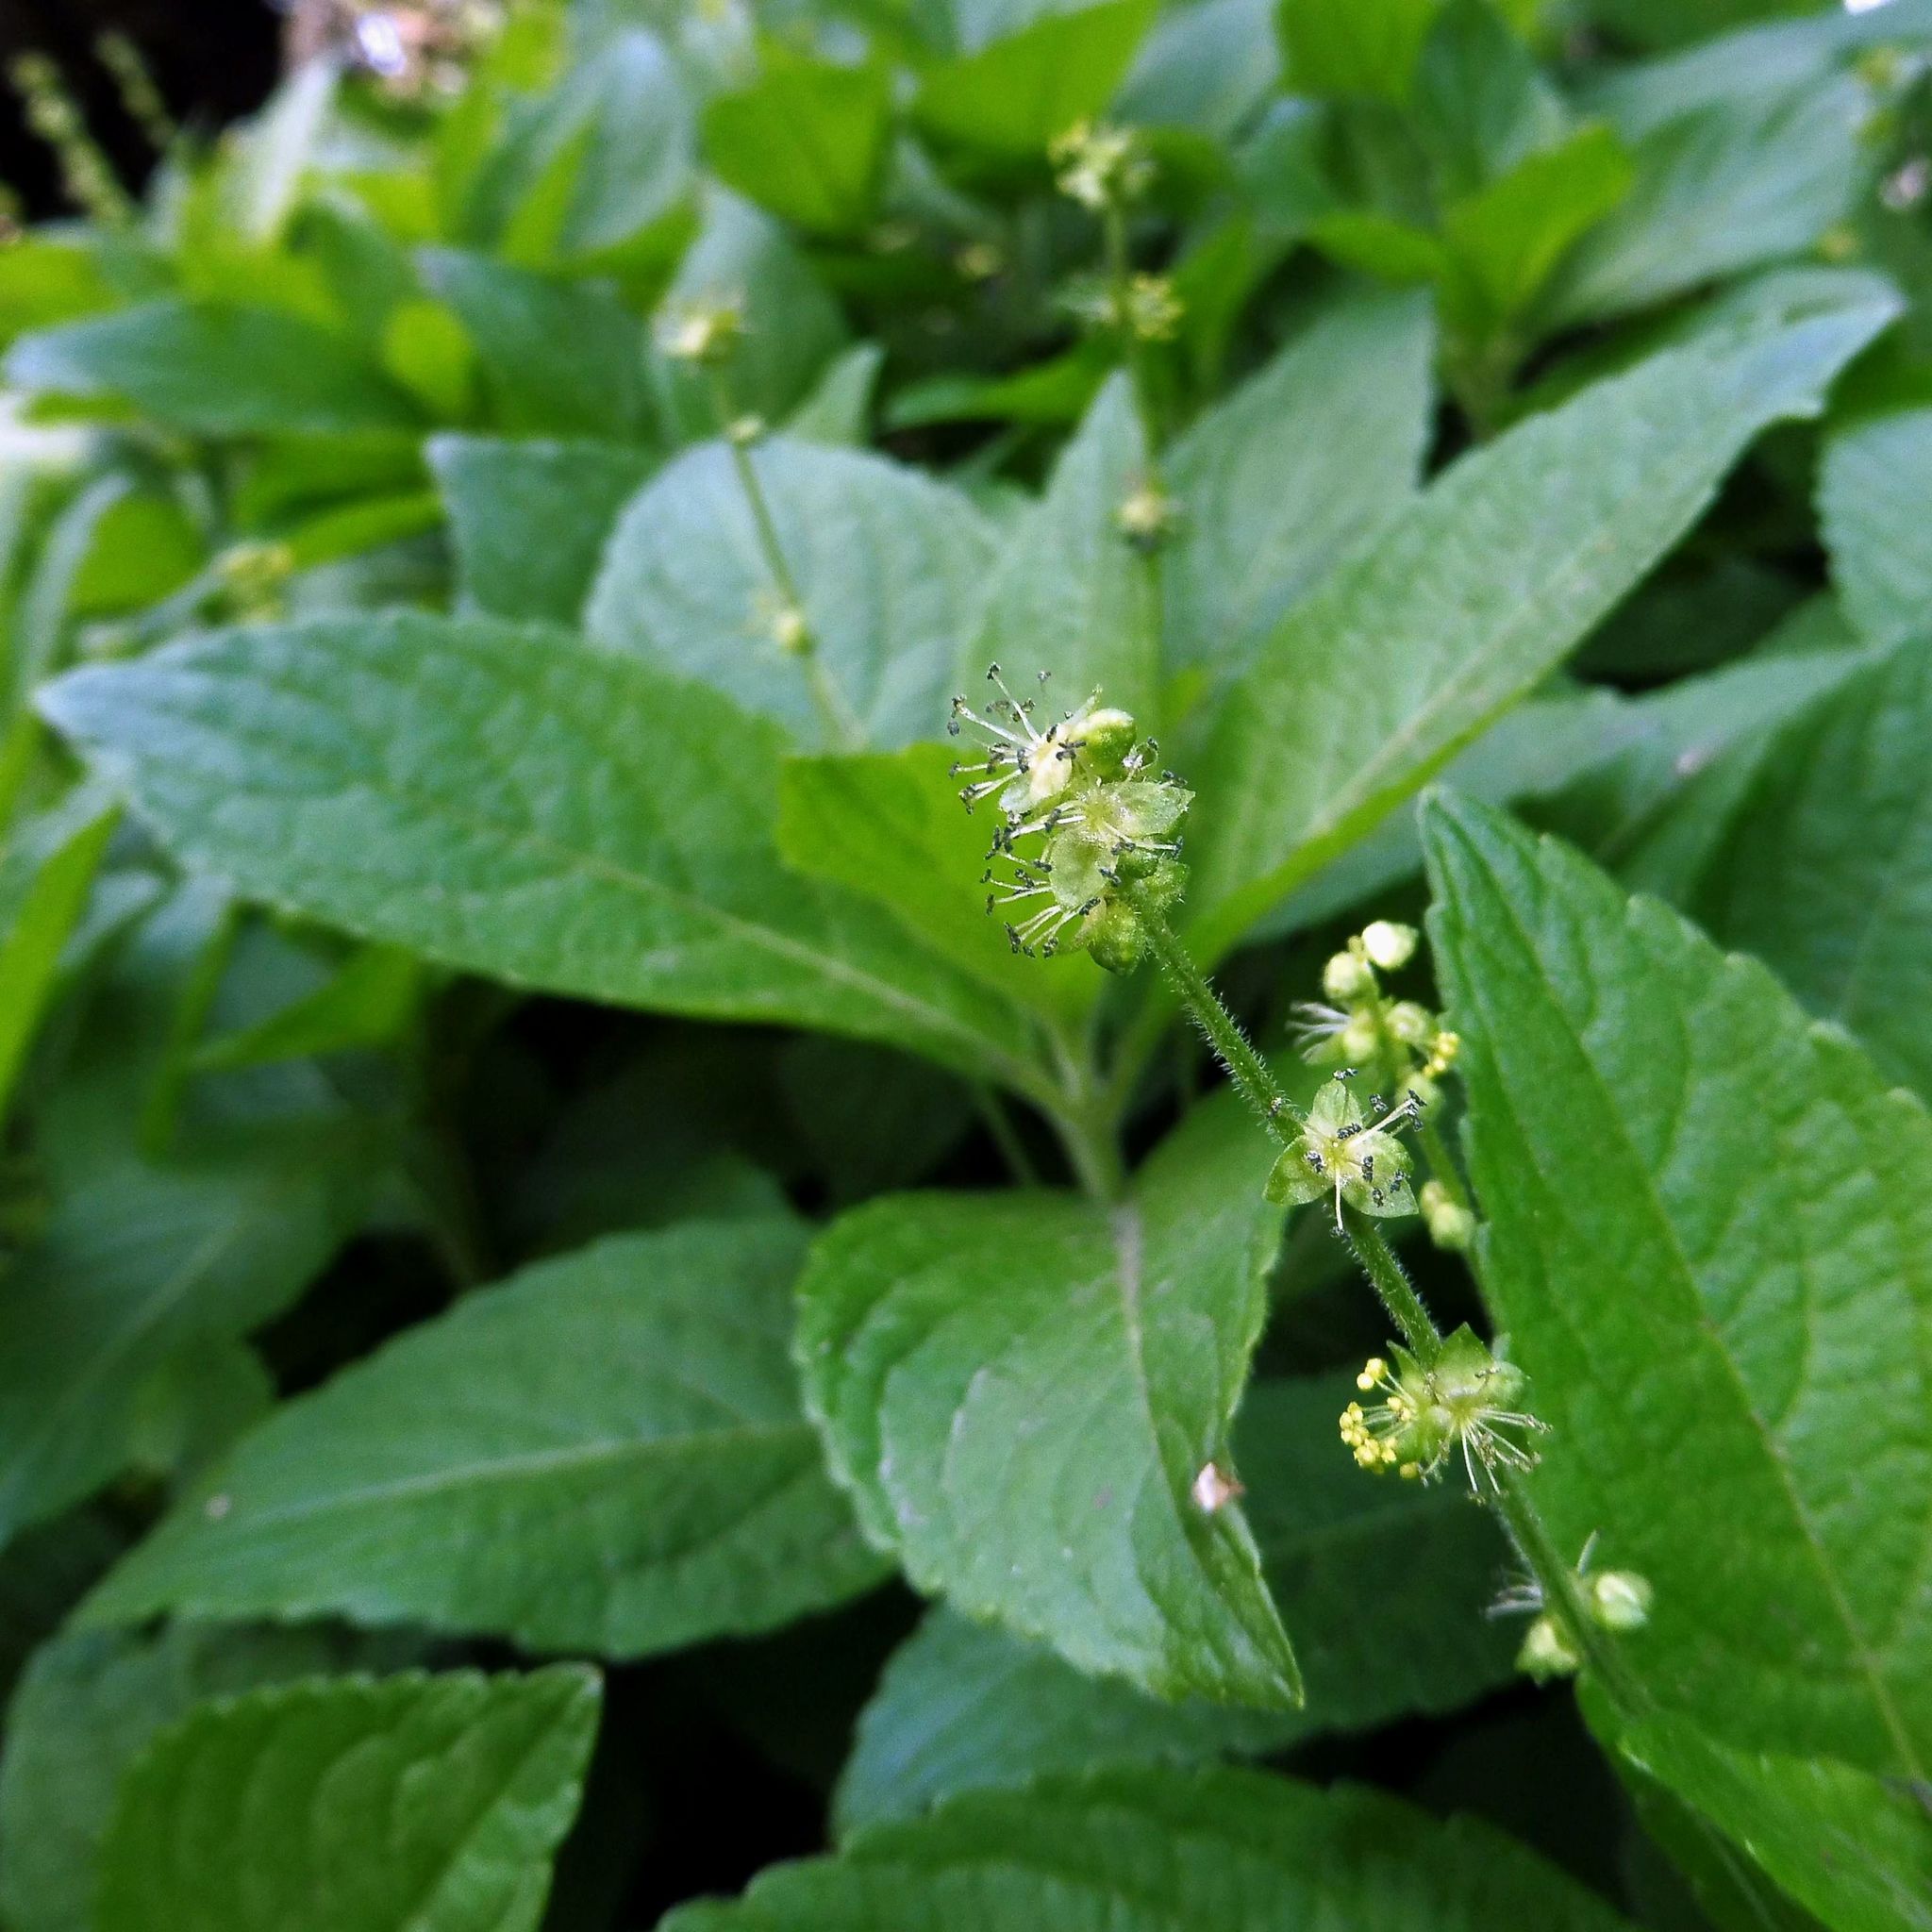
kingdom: Plantae
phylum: Tracheophyta
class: Magnoliopsida
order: Malpighiales
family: Euphorbiaceae
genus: Mercurialis
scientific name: Mercurialis perennis
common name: Dog mercury
